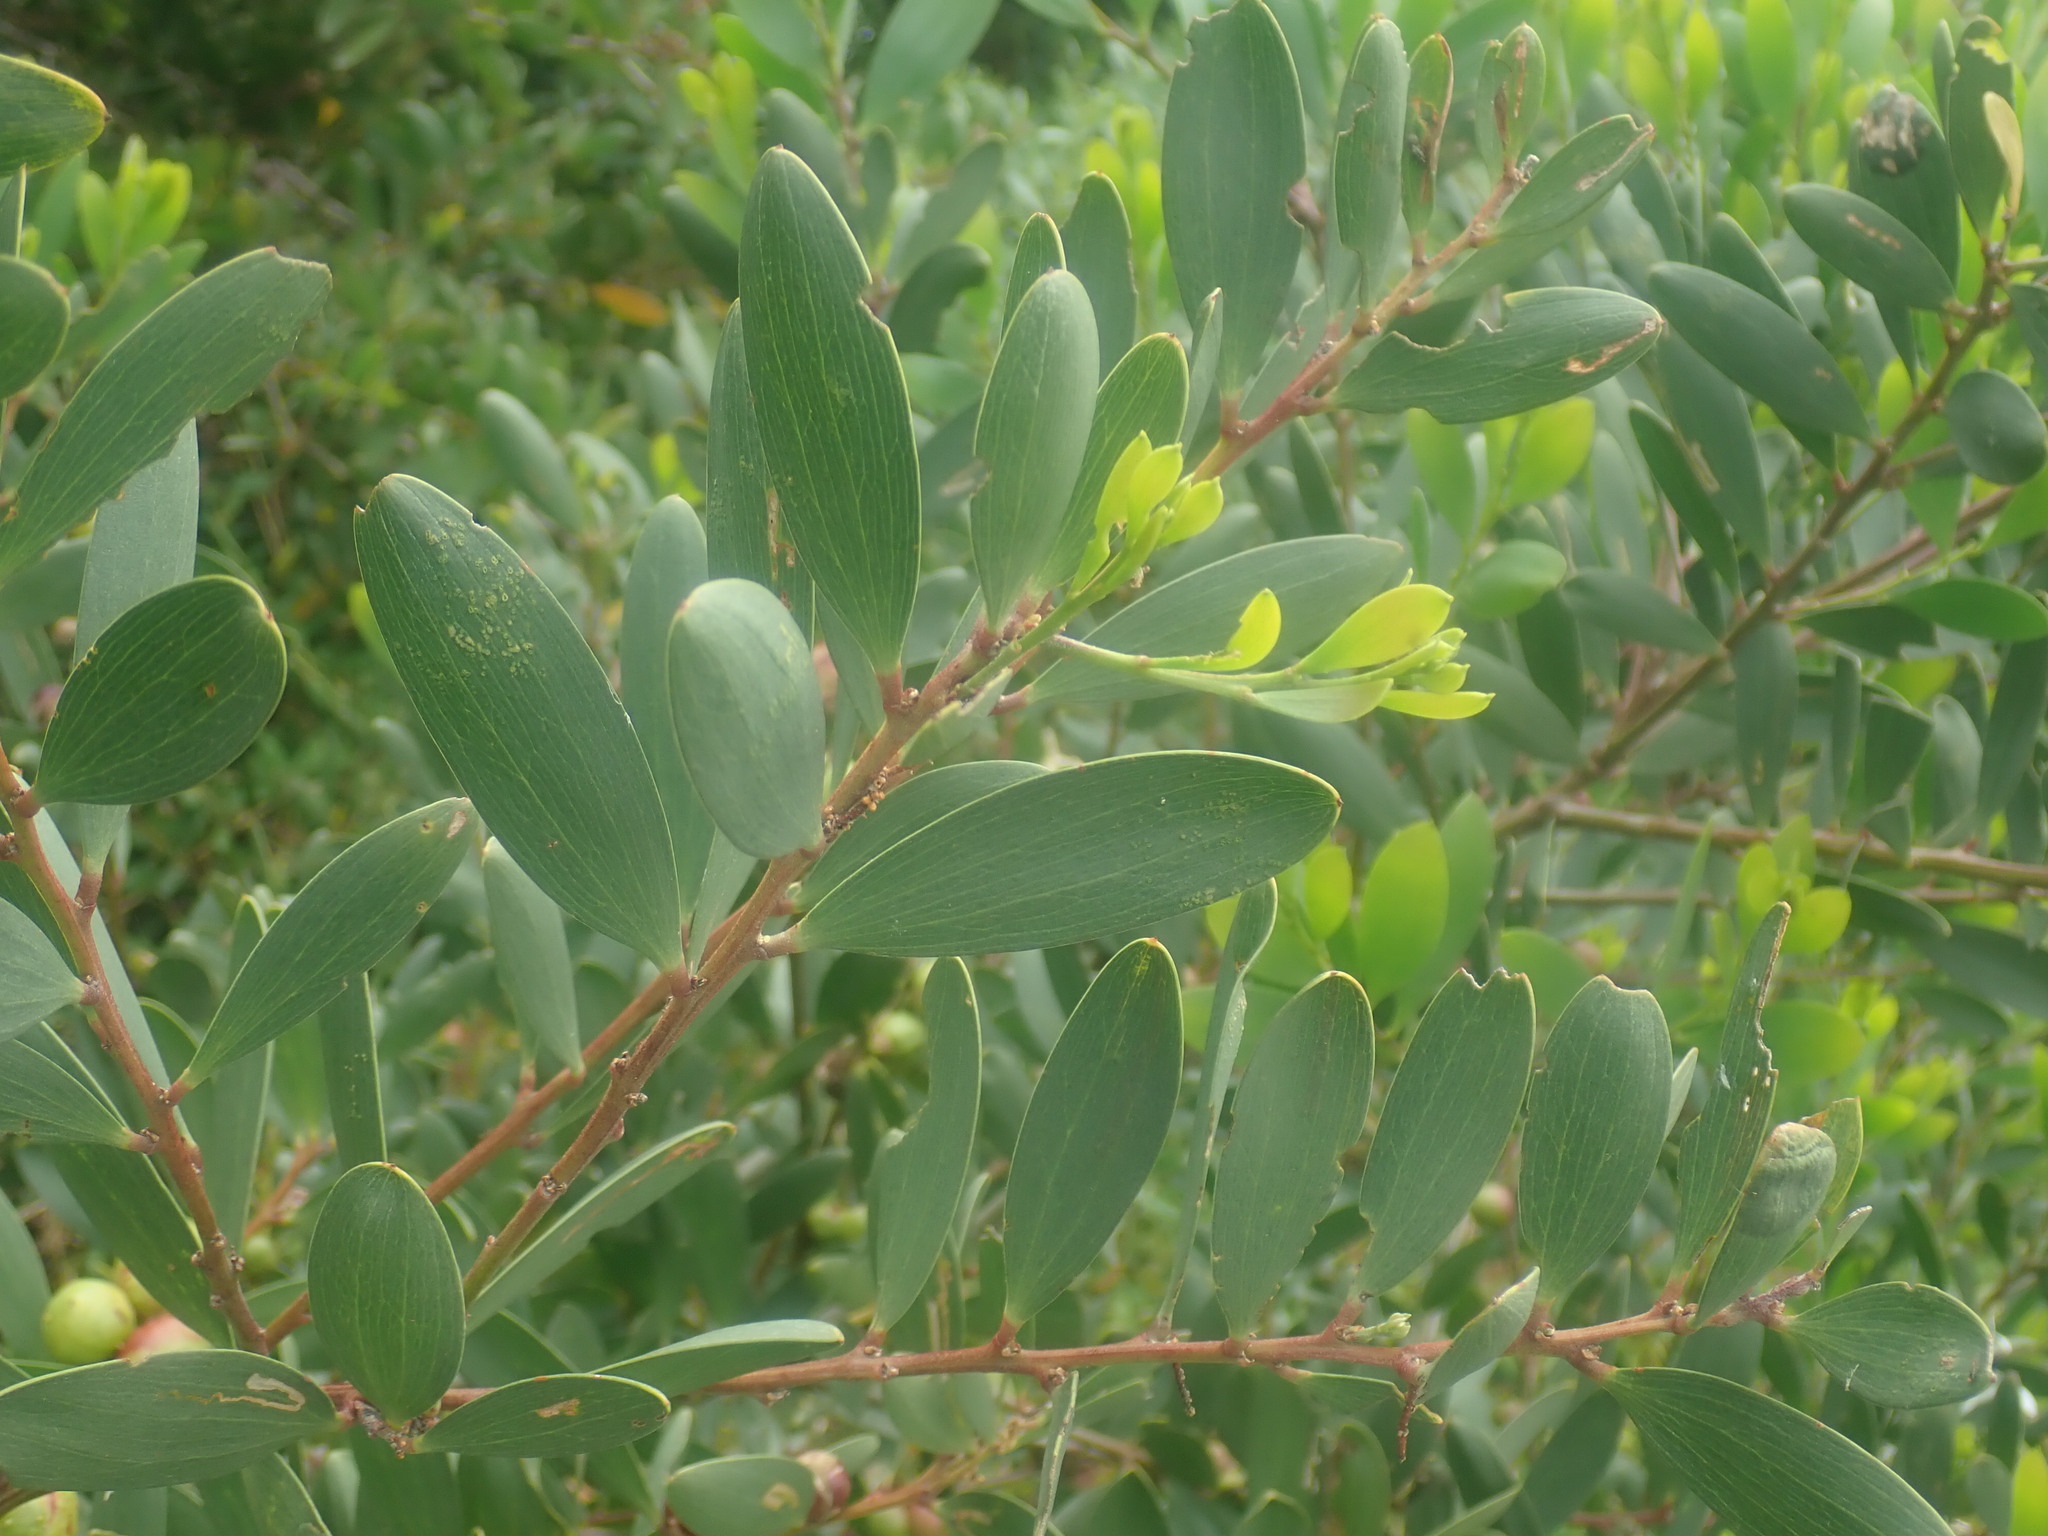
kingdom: Plantae
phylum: Tracheophyta
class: Magnoliopsida
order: Fabales
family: Fabaceae
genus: Acacia
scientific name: Acacia longifolia
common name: Sydney golden wattle
